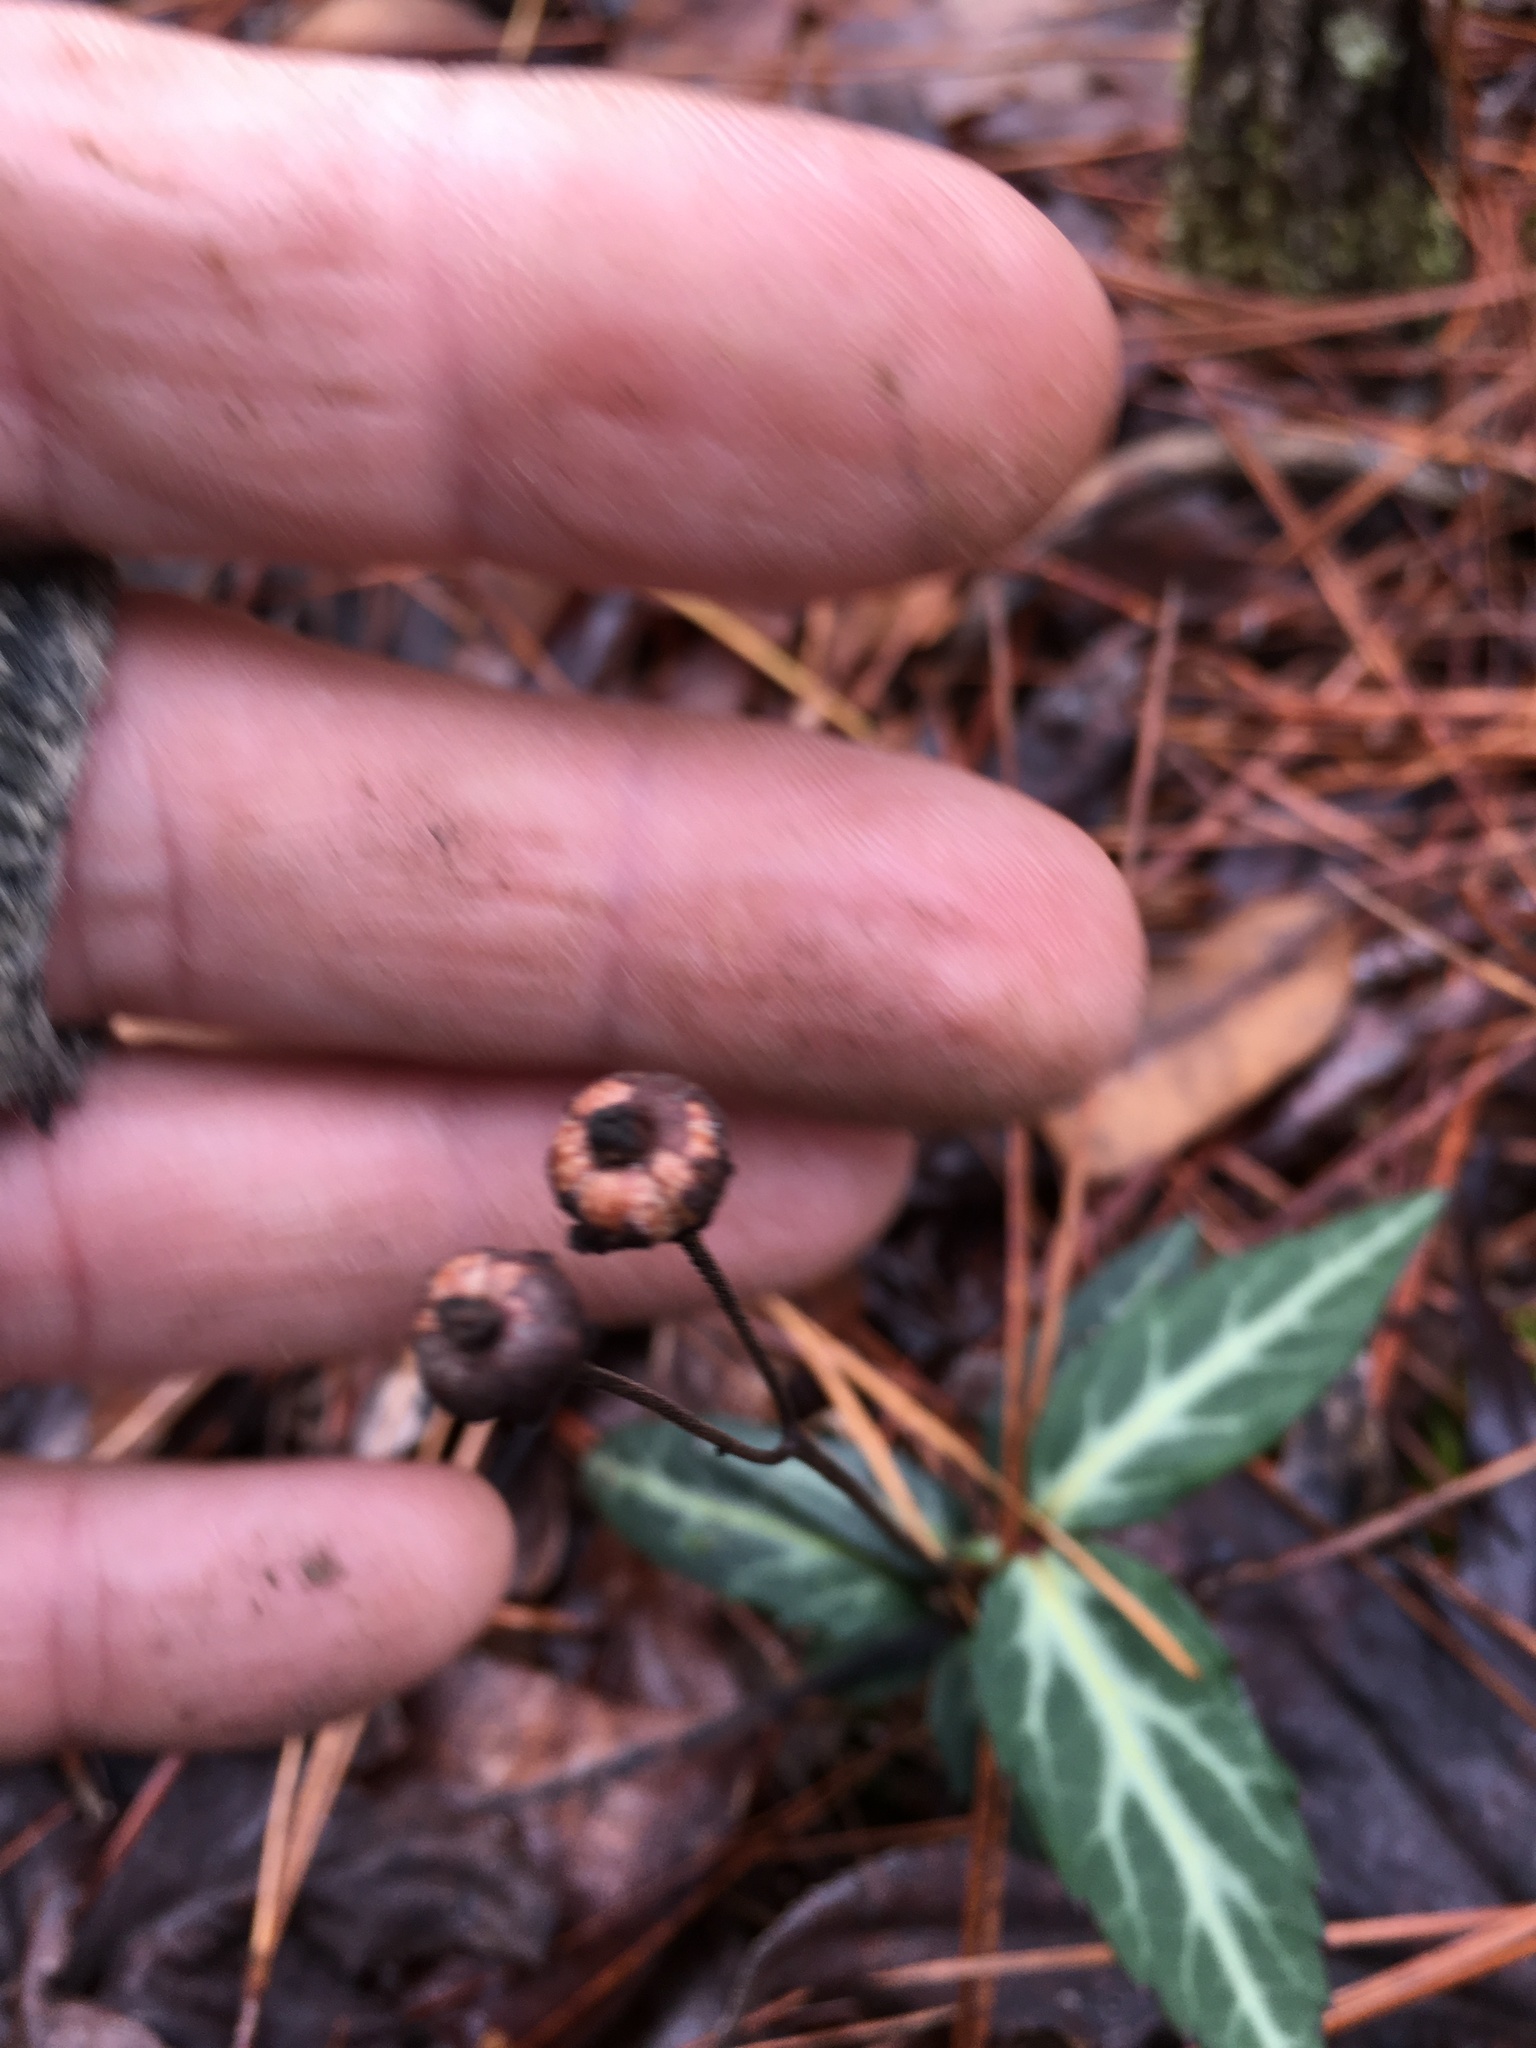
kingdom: Plantae
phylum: Tracheophyta
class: Magnoliopsida
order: Ericales
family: Ericaceae
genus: Chimaphila
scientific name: Chimaphila maculata
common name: Spotted pipsissewa
